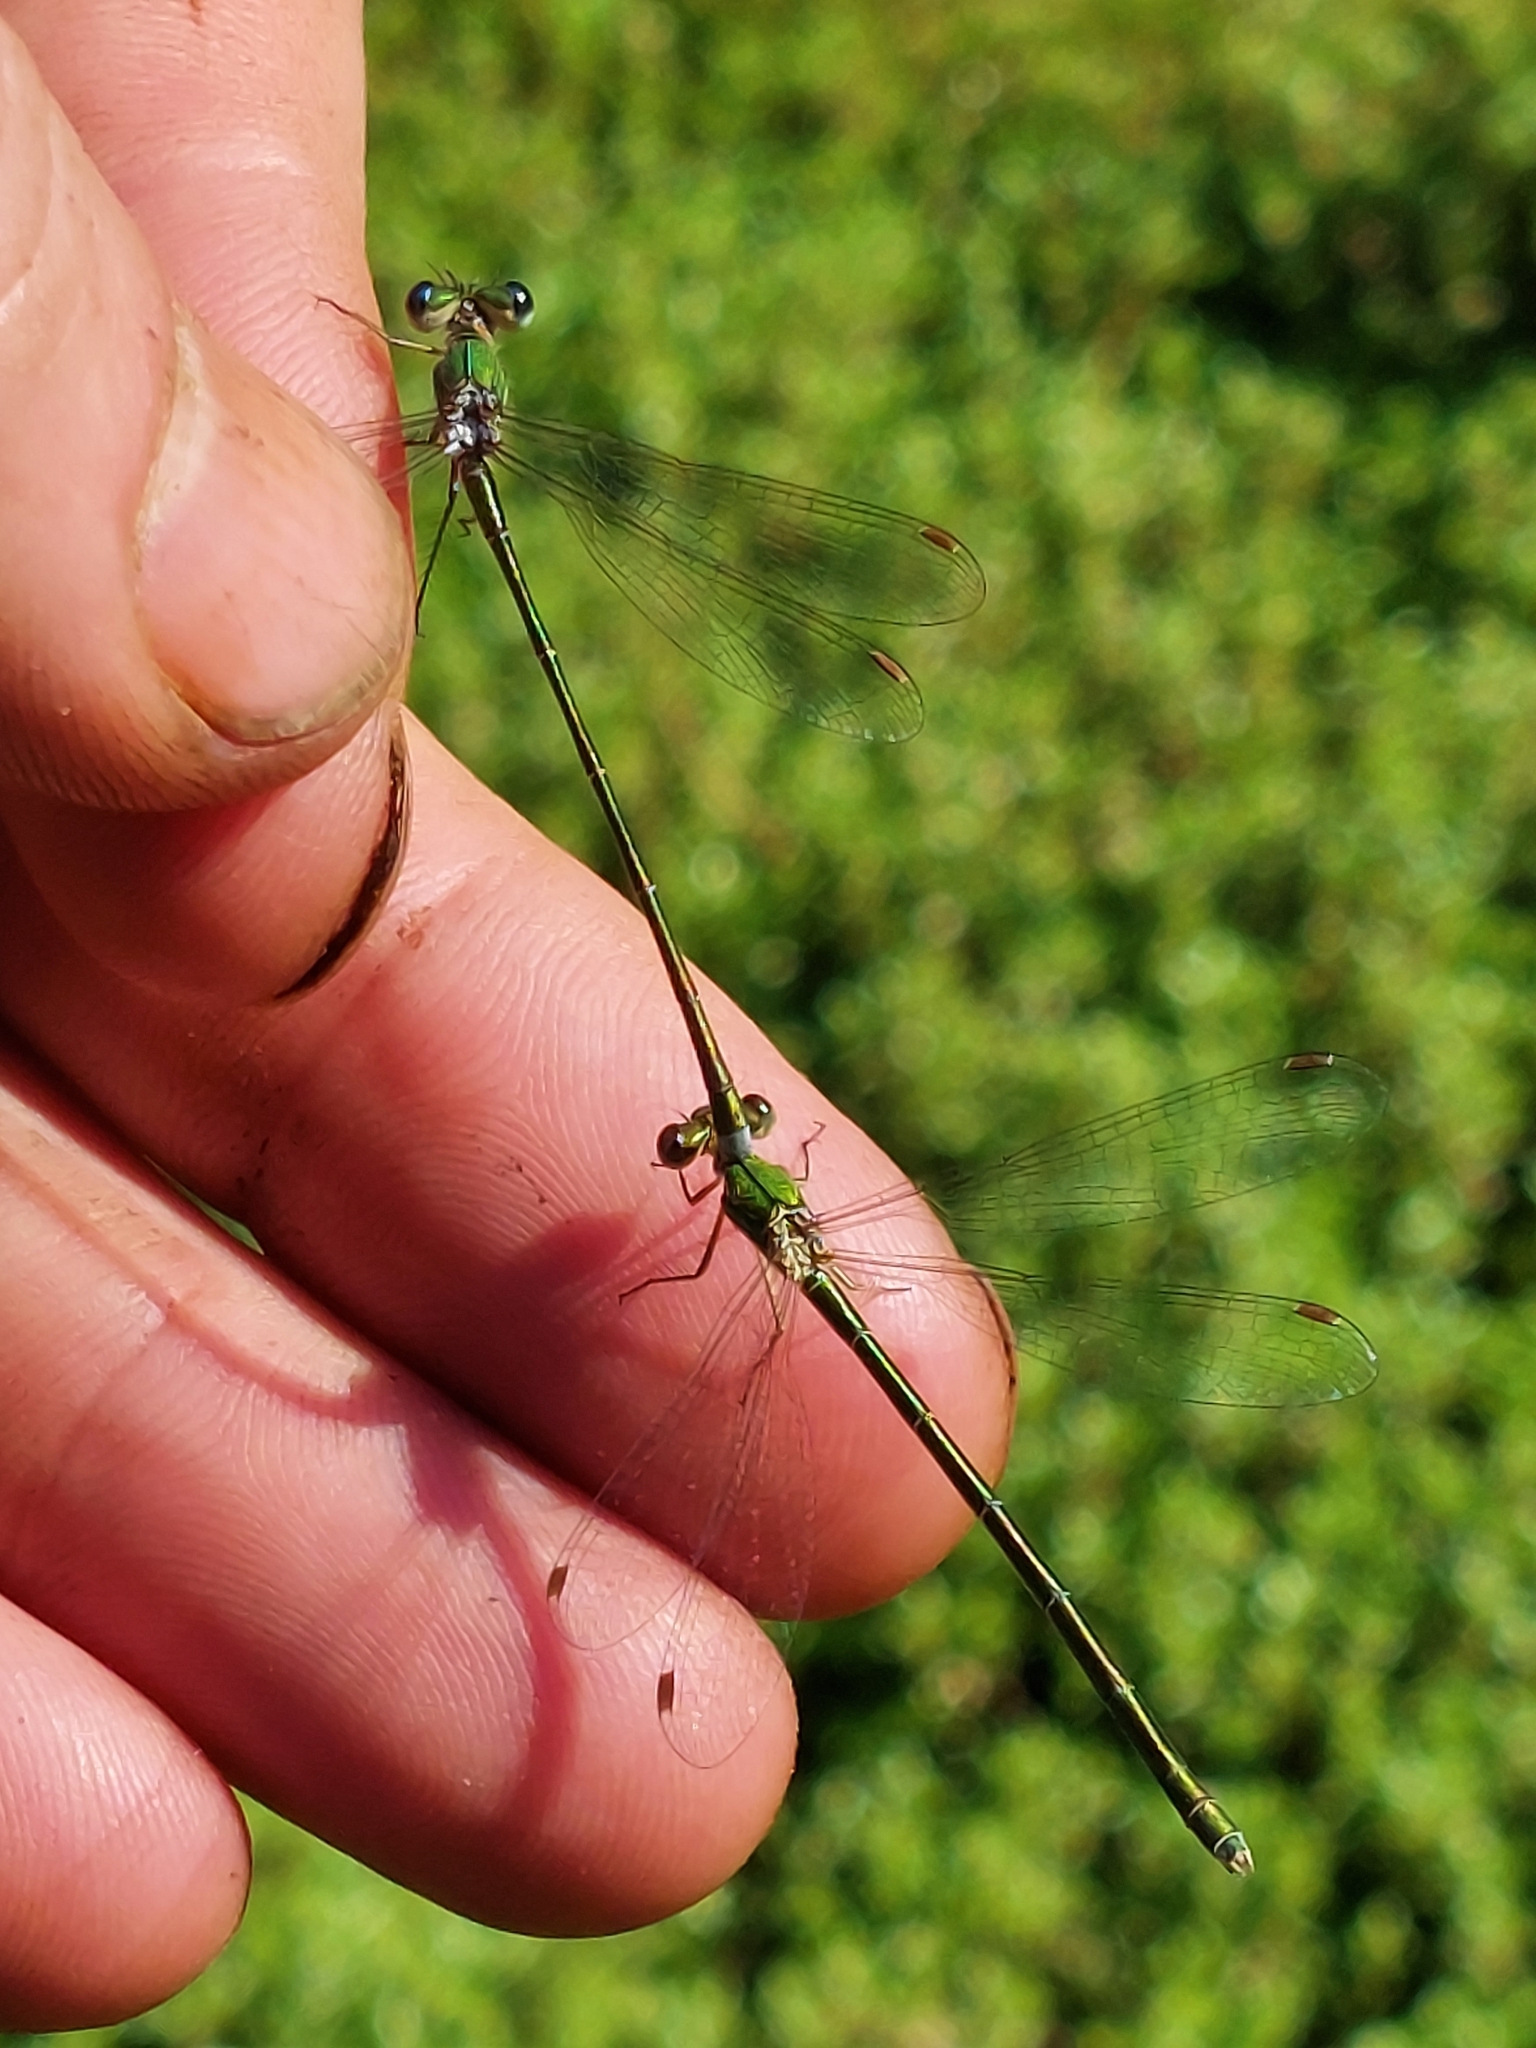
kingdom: Animalia
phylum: Arthropoda
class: Insecta
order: Odonata
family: Lestidae
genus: Lestes
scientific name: Lestes virens
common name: Small emerald spreadwing
